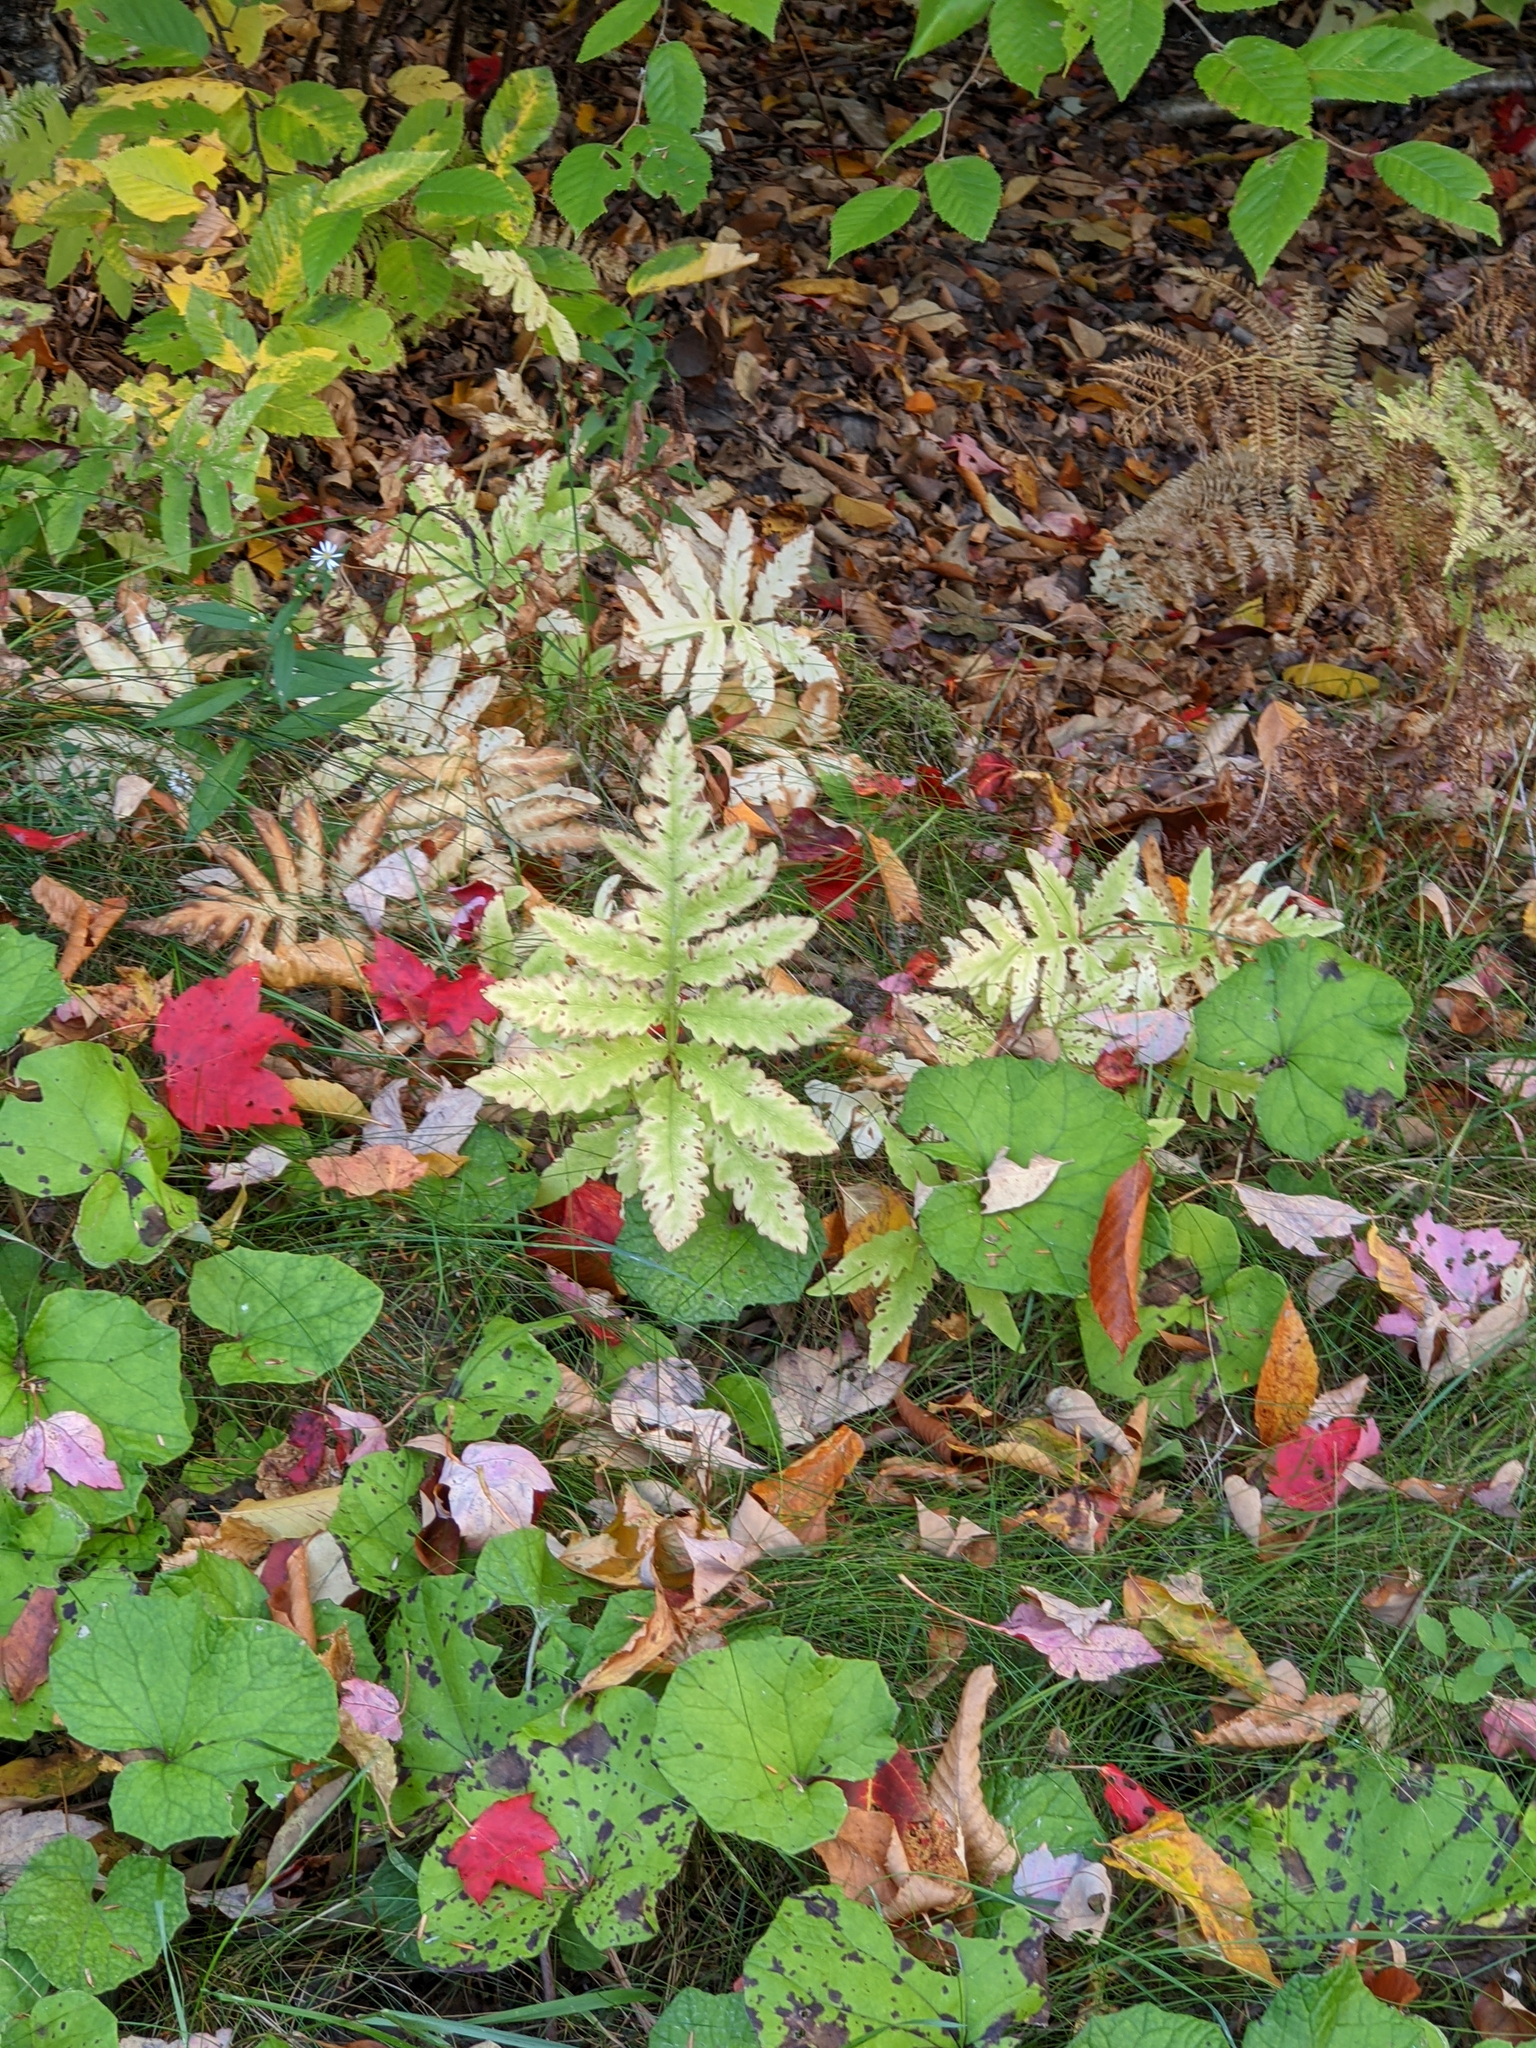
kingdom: Plantae
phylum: Tracheophyta
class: Polypodiopsida
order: Polypodiales
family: Onocleaceae
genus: Onoclea
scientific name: Onoclea sensibilis
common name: Sensitive fern
